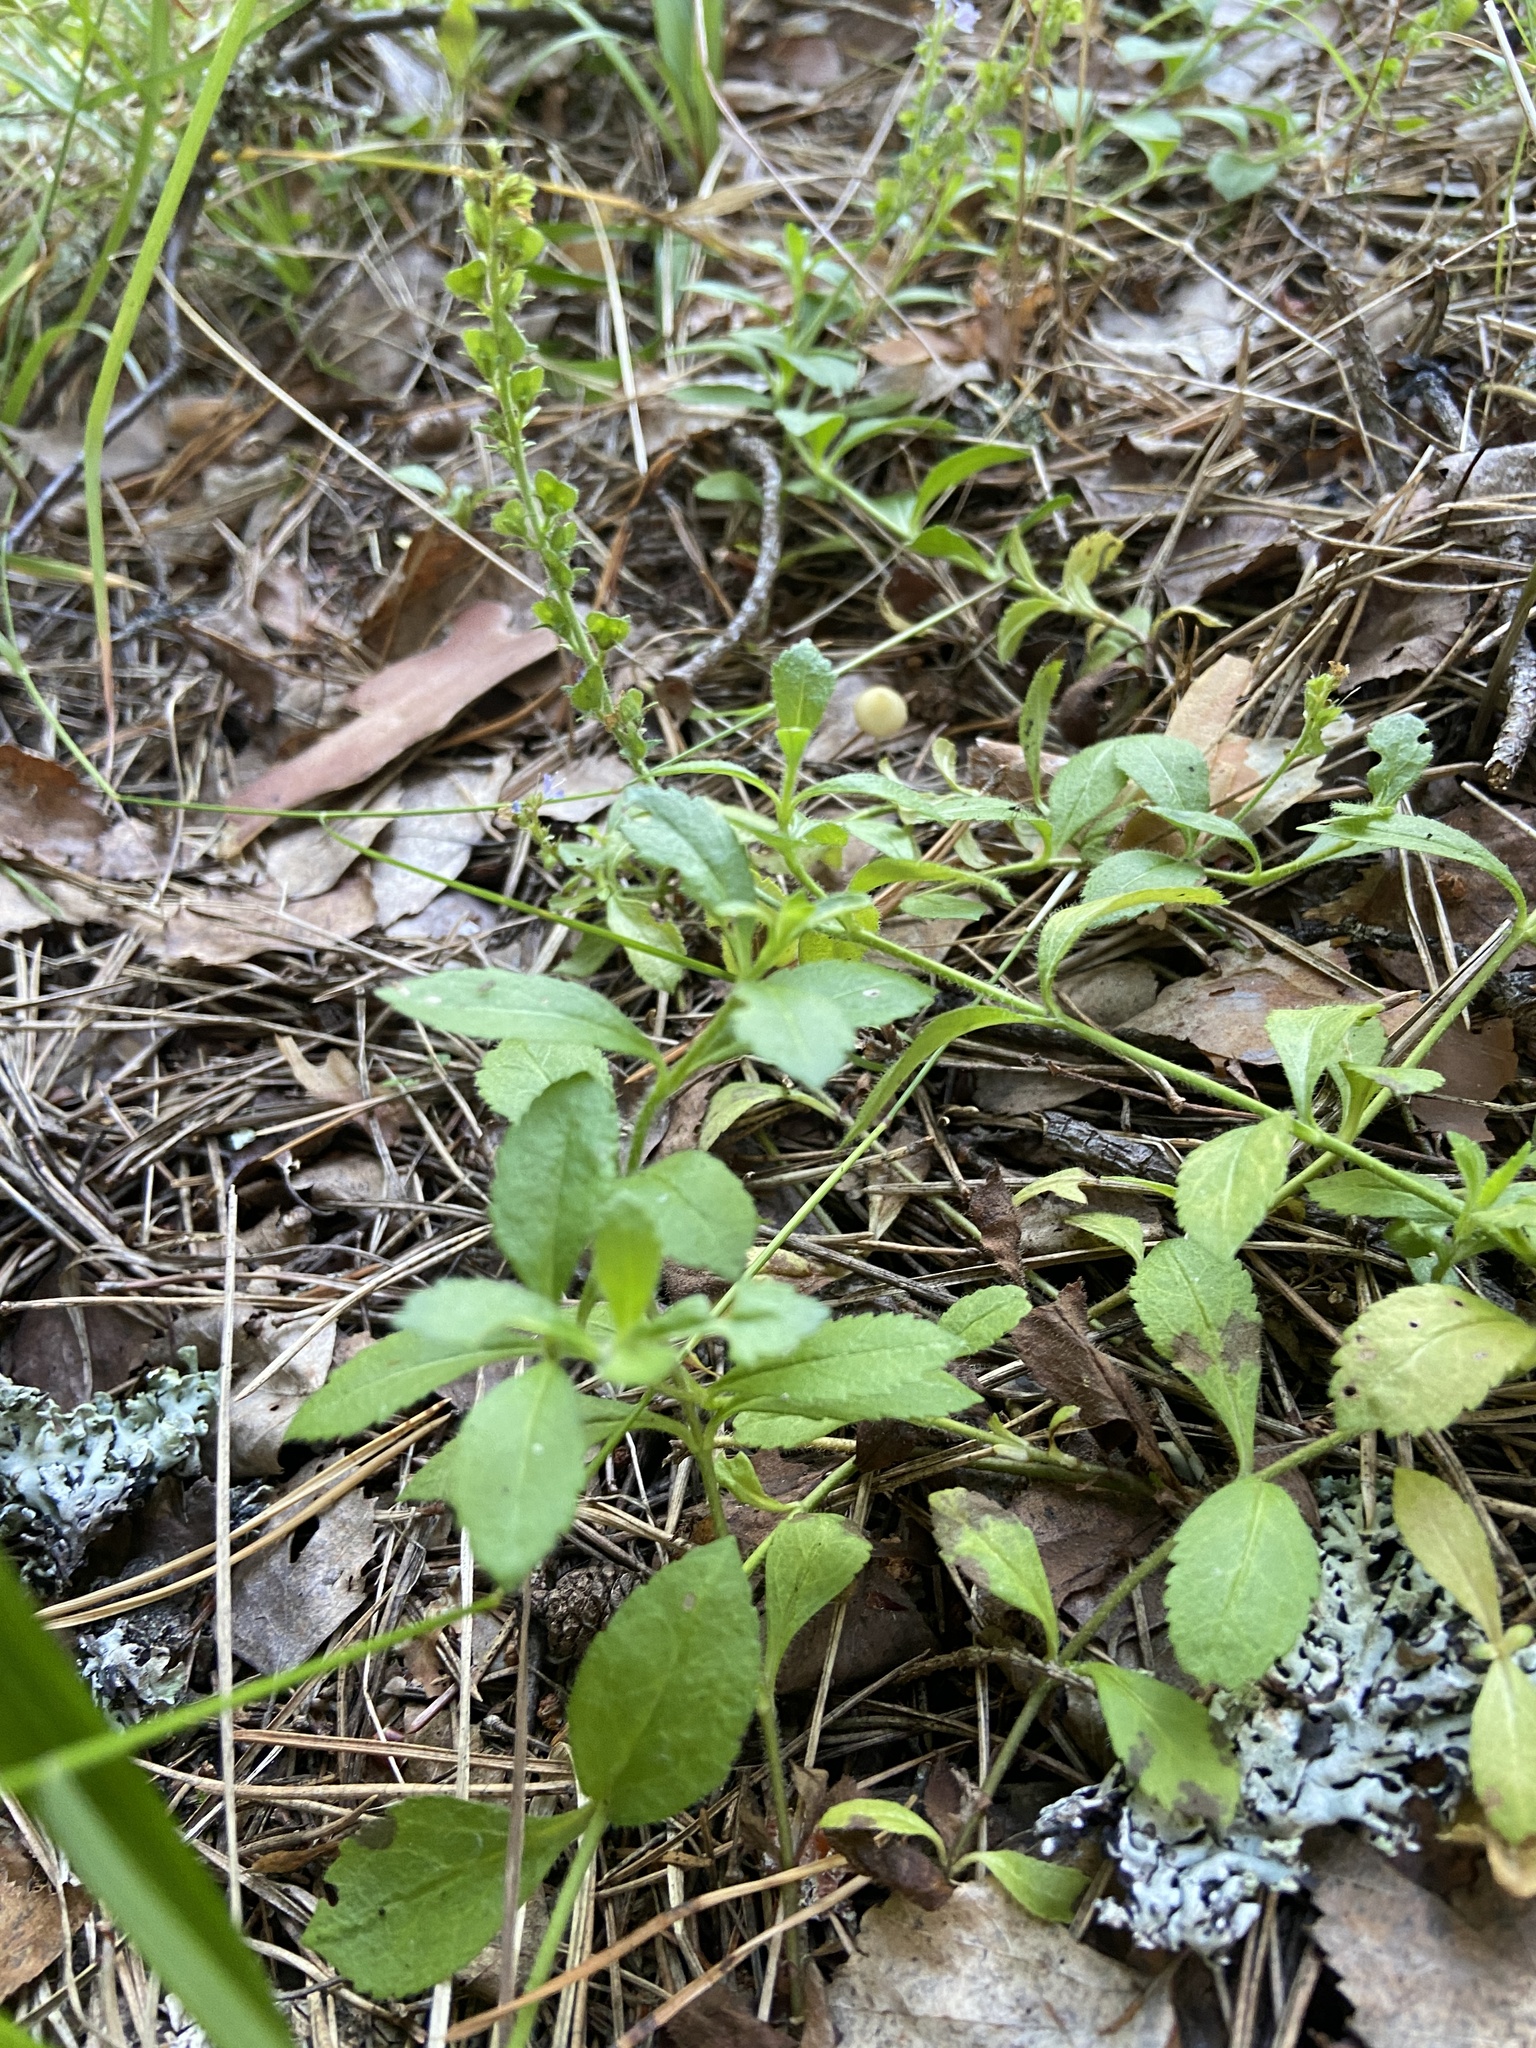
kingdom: Plantae
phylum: Tracheophyta
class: Magnoliopsida
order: Lamiales
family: Plantaginaceae
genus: Veronica
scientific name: Veronica officinalis
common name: Common speedwell
